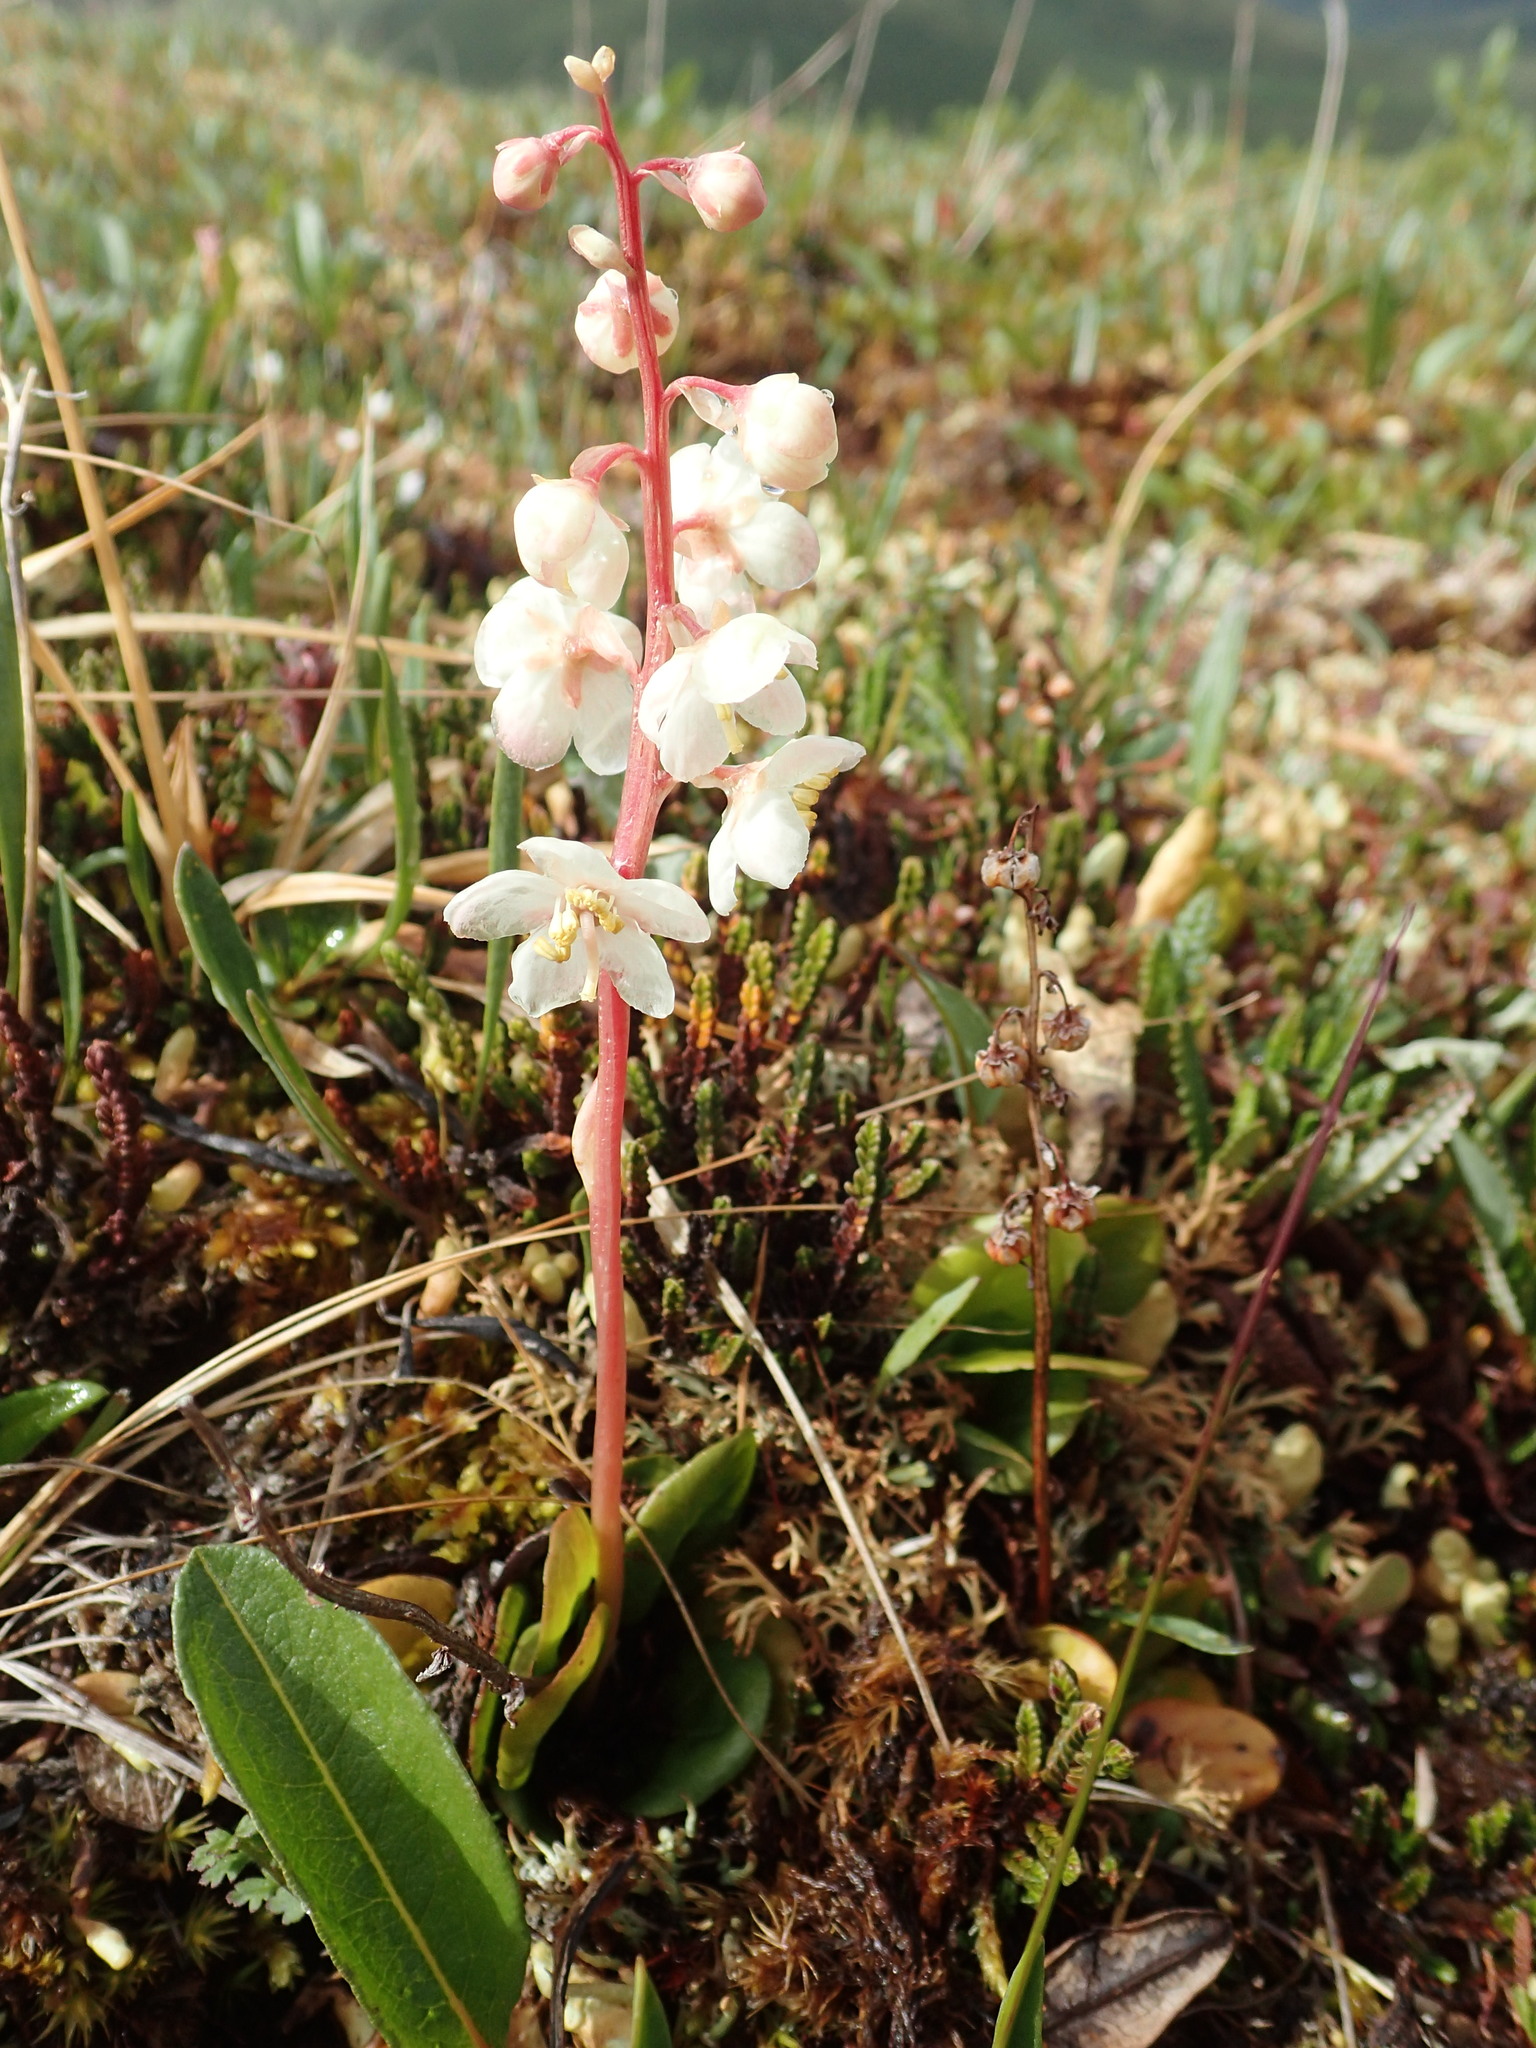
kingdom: Plantae
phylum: Tracheophyta
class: Magnoliopsida
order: Ericales
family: Ericaceae
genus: Pyrola
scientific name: Pyrola grandiflora
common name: Arctic pyrola
